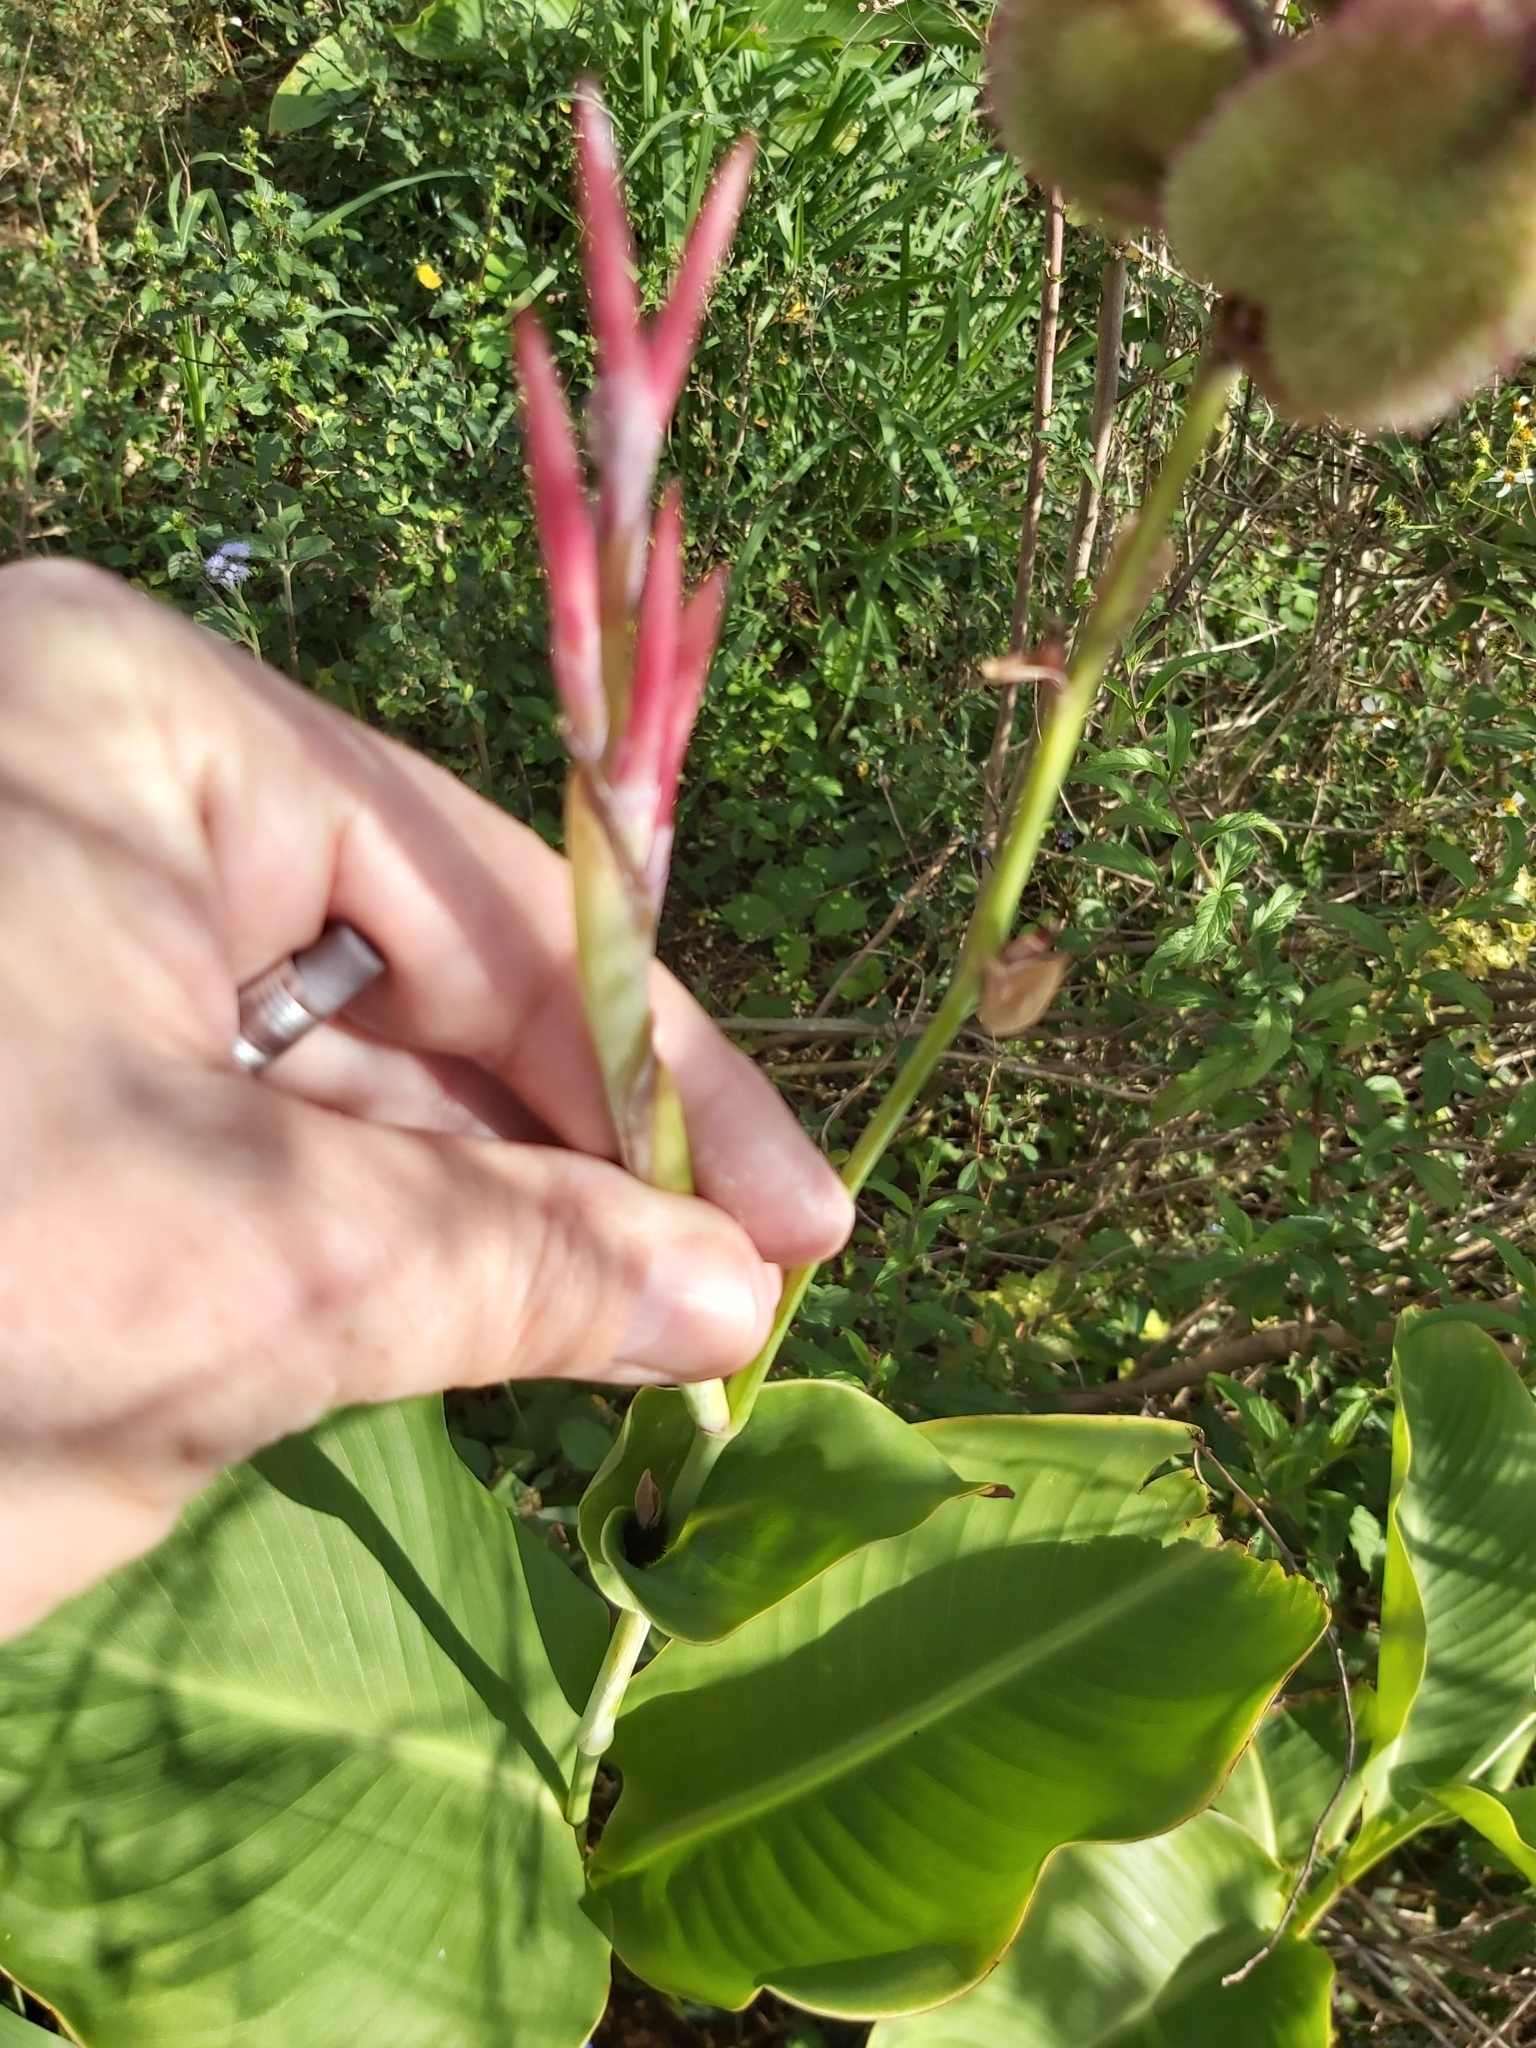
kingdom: Plantae
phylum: Tracheophyta
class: Liliopsida
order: Zingiberales
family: Cannaceae
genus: Canna
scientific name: Canna indica
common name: Indian shot
